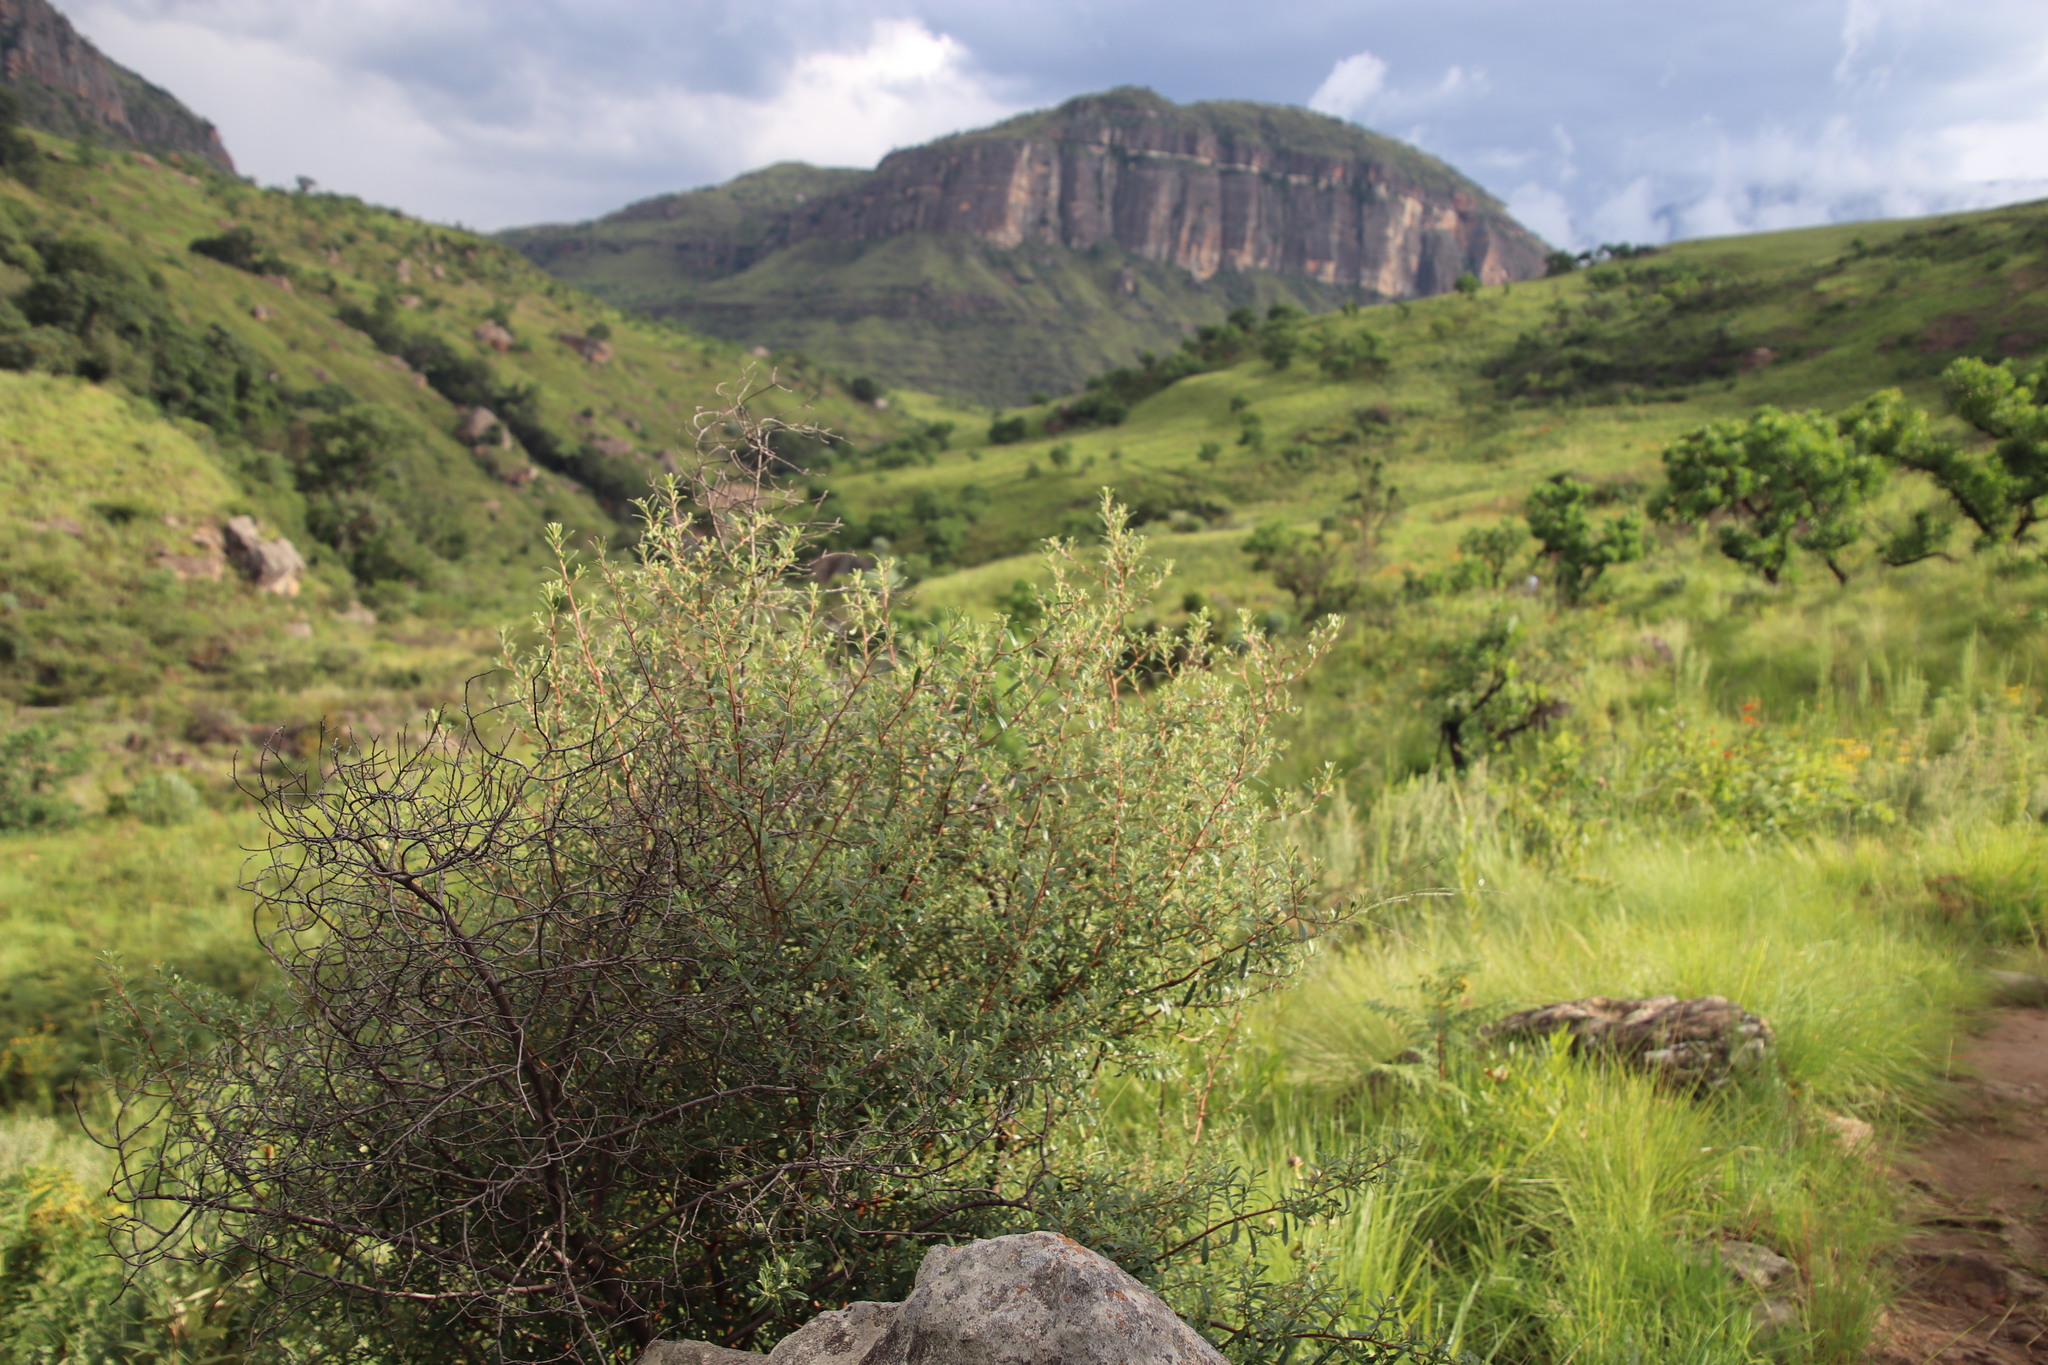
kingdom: Plantae
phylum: Tracheophyta
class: Magnoliopsida
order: Ericales
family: Ebenaceae
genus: Diospyros
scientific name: Diospyros pubescens
